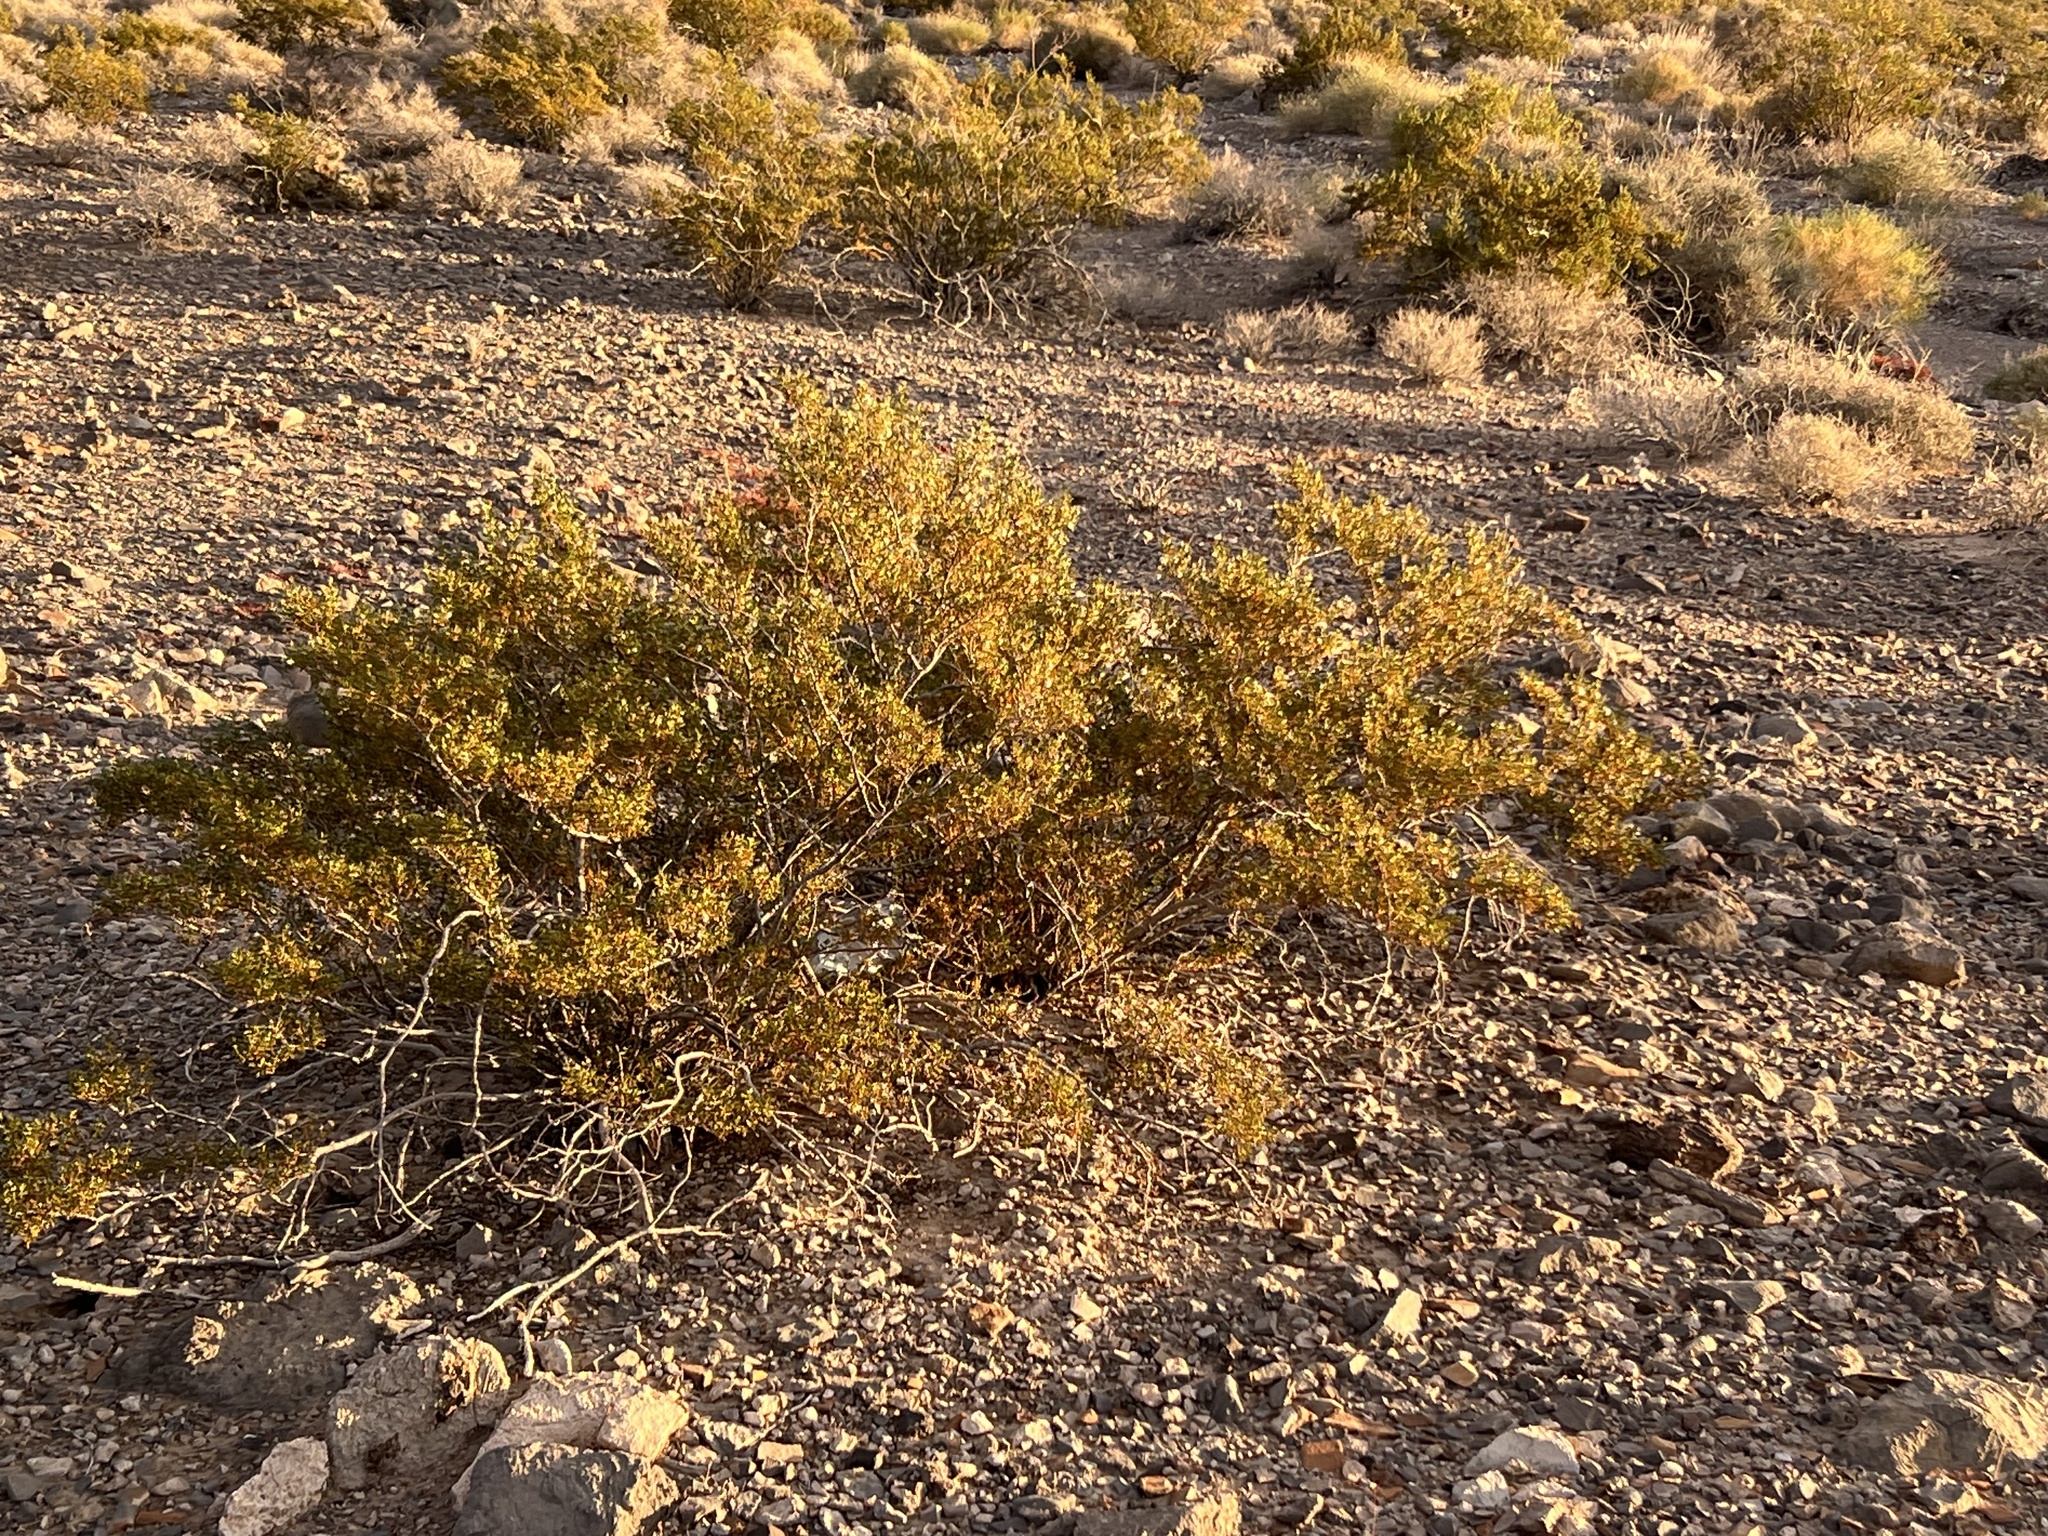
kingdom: Plantae
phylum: Tracheophyta
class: Magnoliopsida
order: Zygophyllales
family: Zygophyllaceae
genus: Larrea
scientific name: Larrea tridentata
